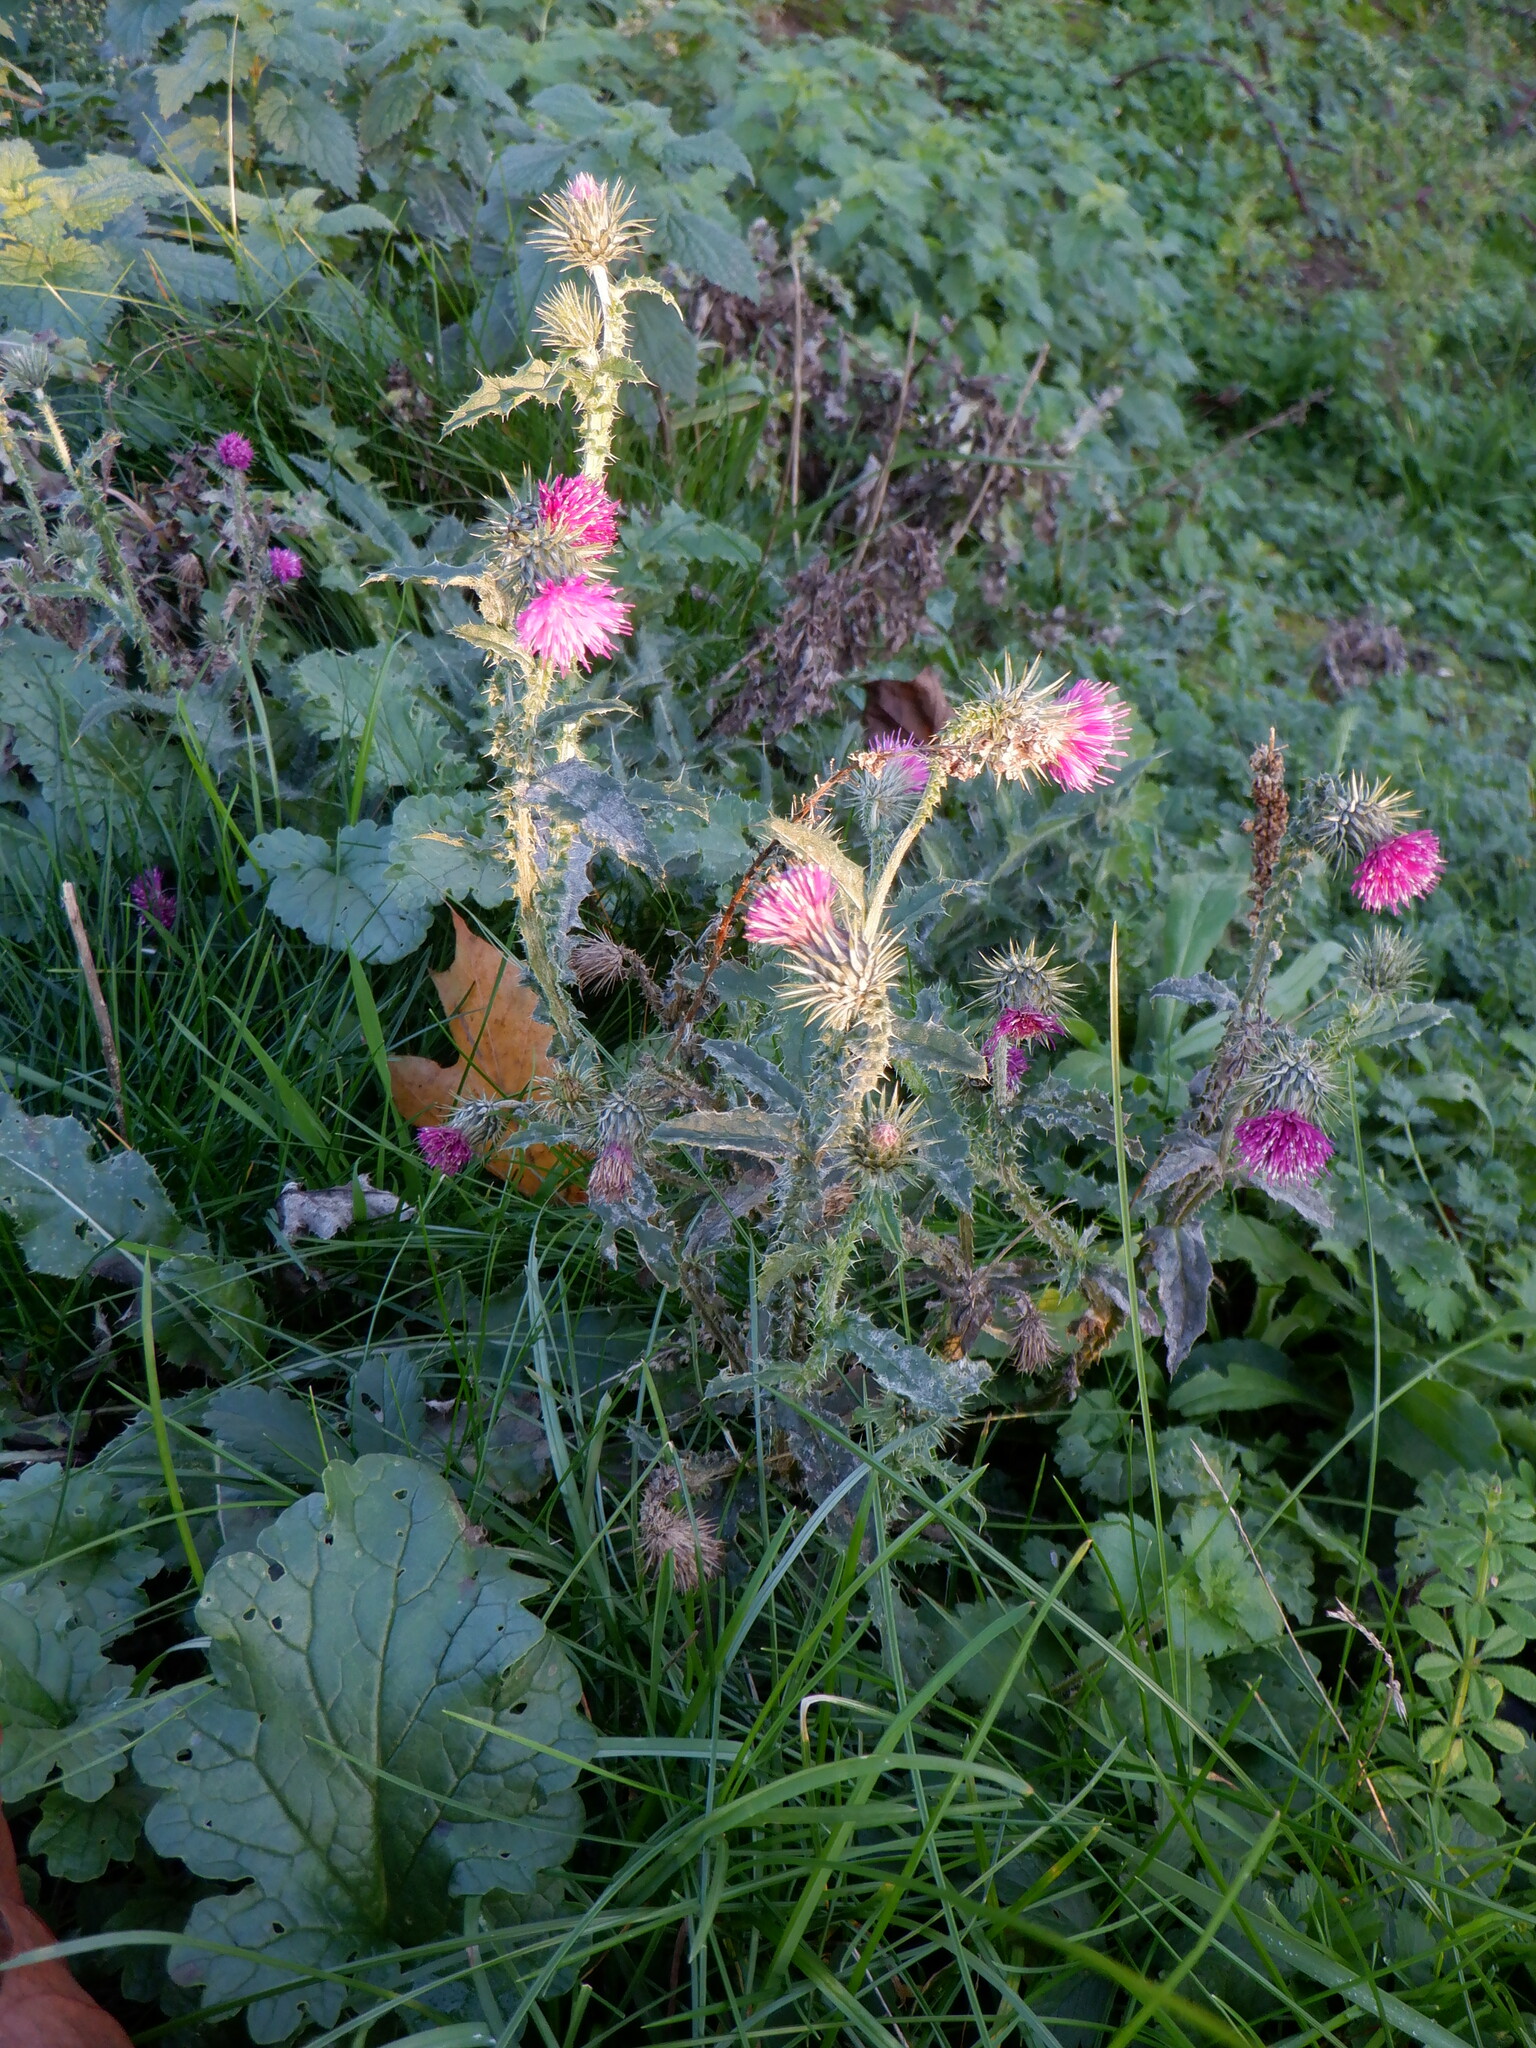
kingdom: Plantae
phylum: Tracheophyta
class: Magnoliopsida
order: Asterales
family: Asteraceae
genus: Carduus
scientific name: Carduus crispus
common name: Welted thistle
